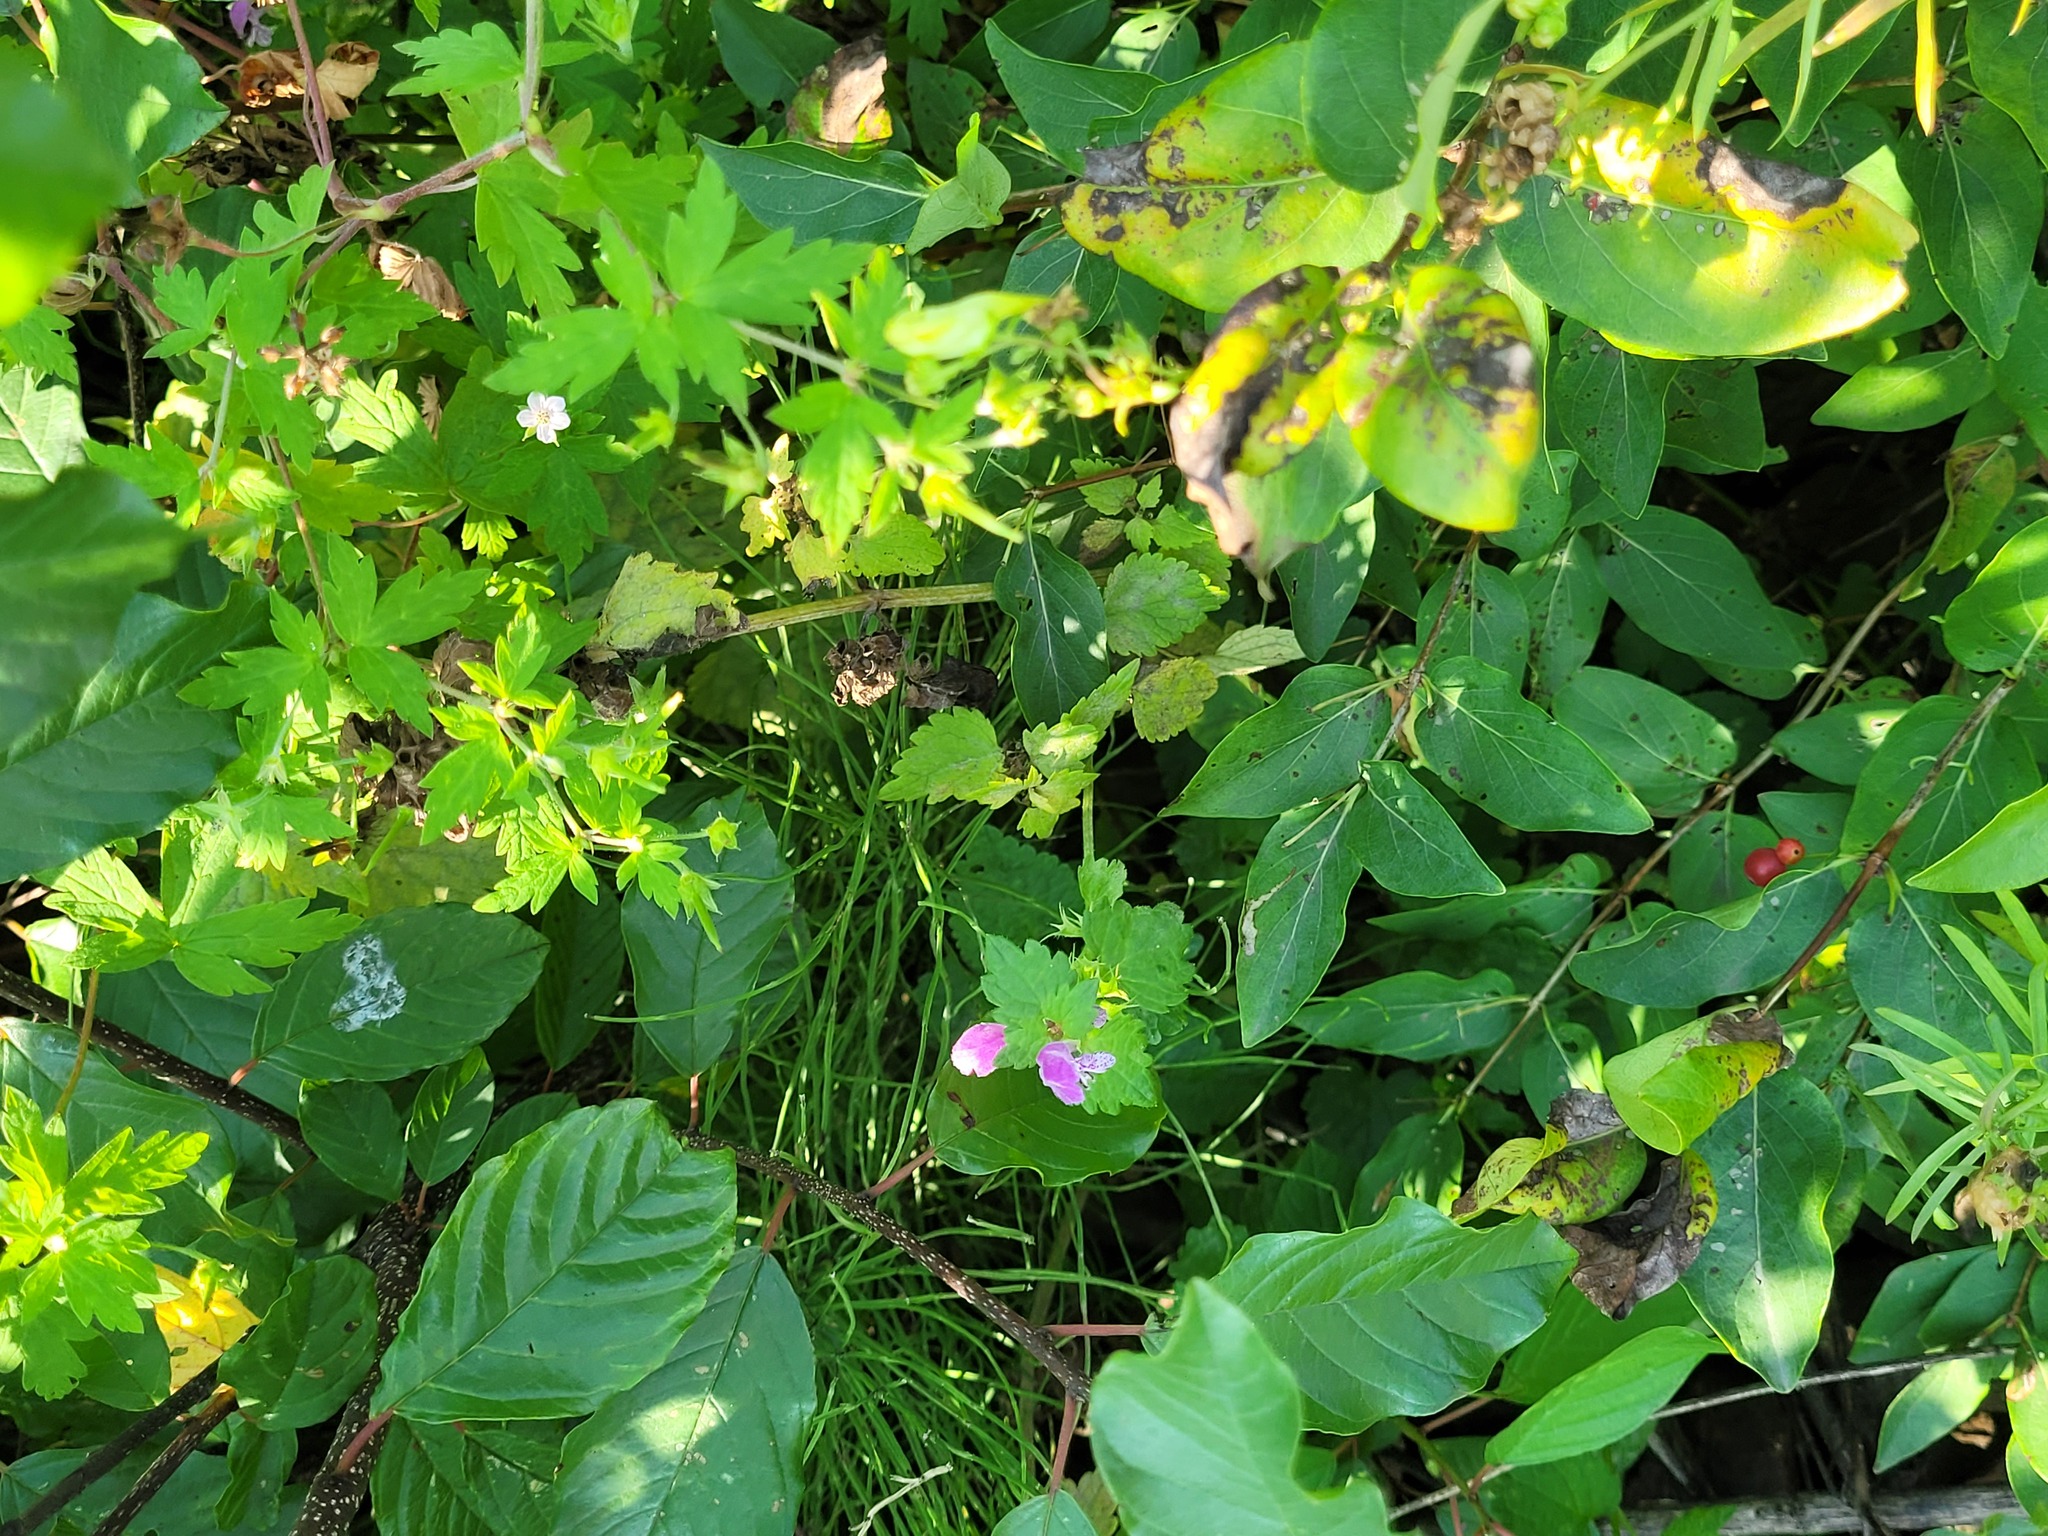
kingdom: Plantae
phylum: Tracheophyta
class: Magnoliopsida
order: Lamiales
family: Lamiaceae
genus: Lamium
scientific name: Lamium maculatum
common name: Spotted dead-nettle
